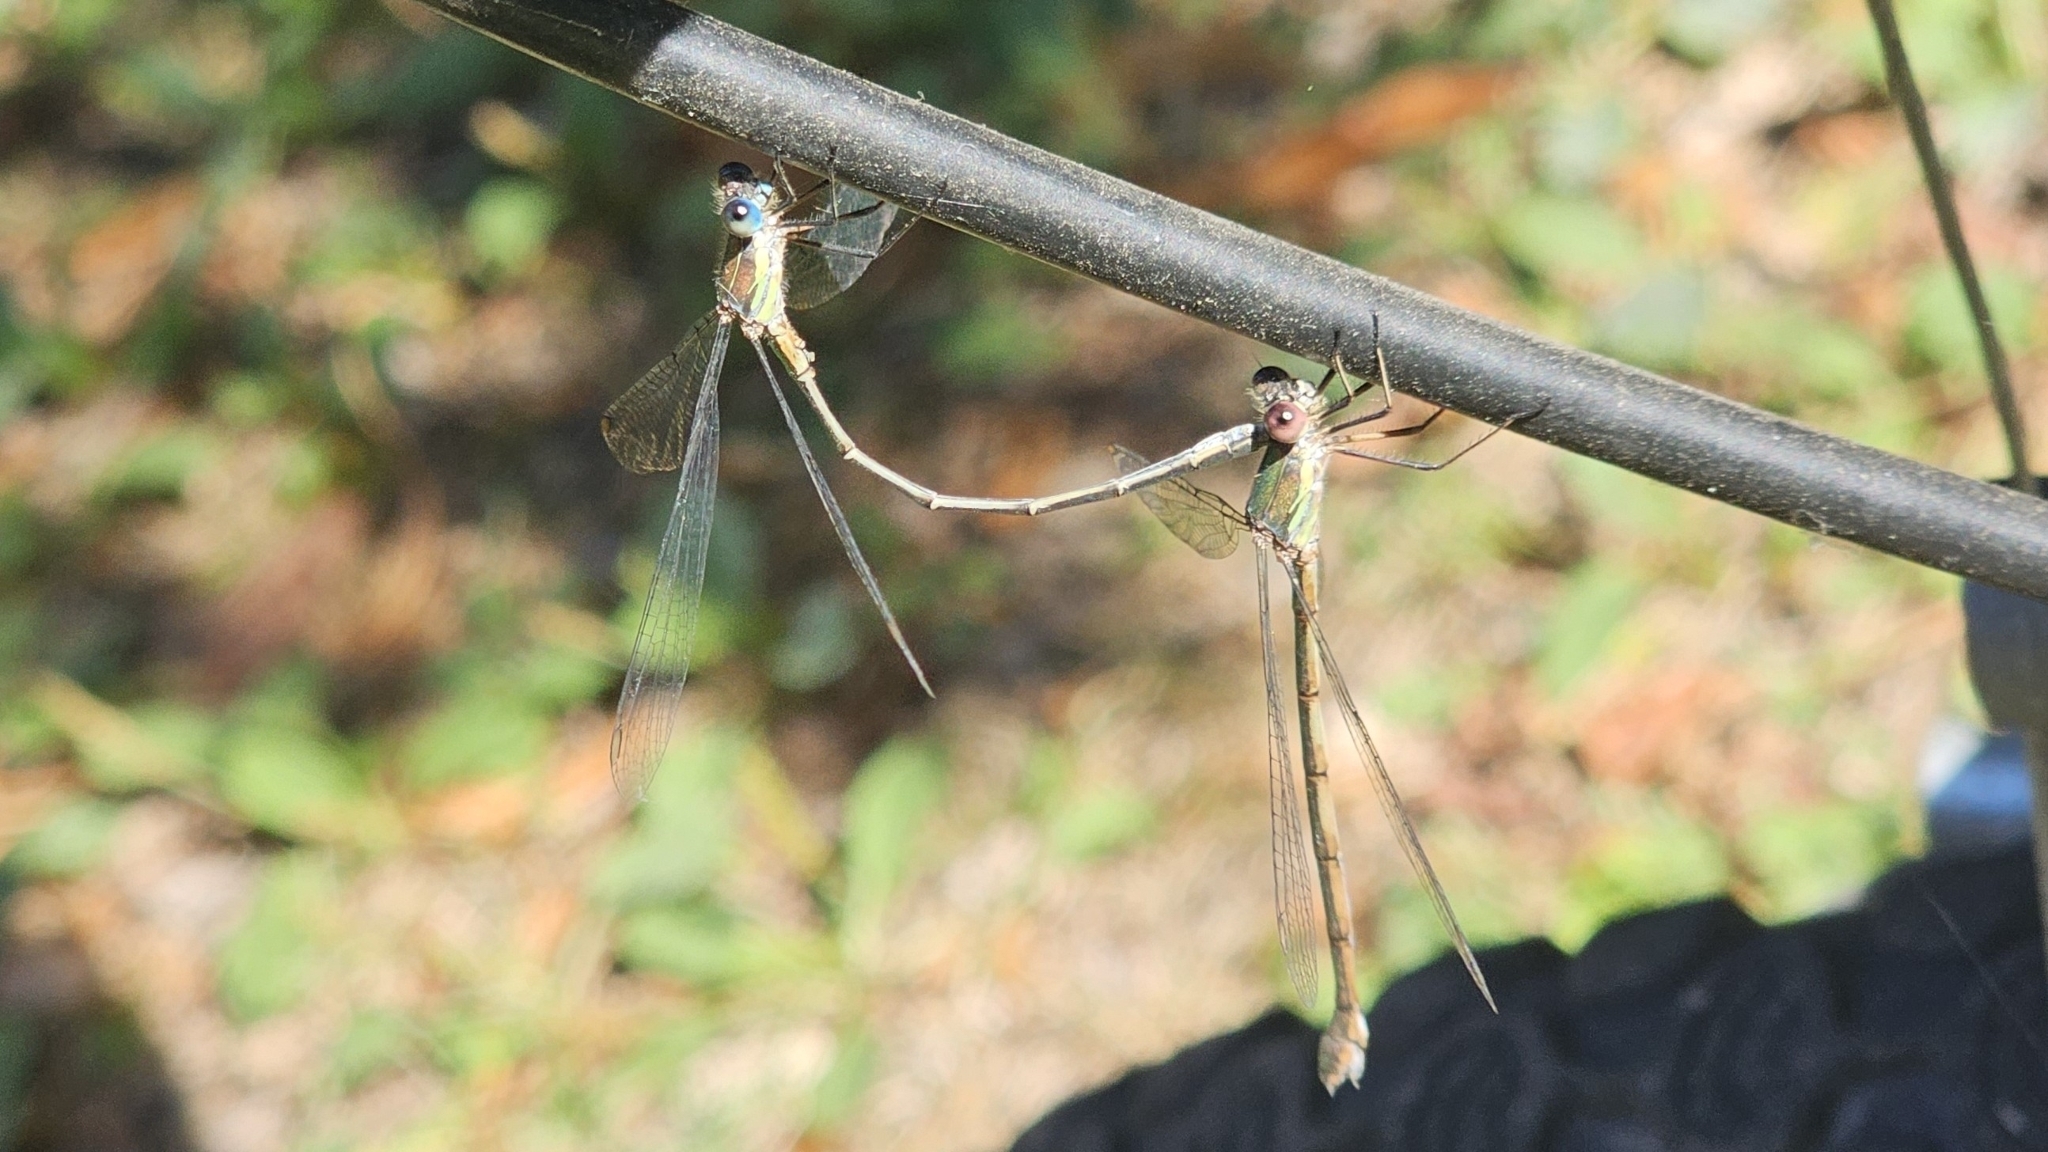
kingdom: Animalia
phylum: Arthropoda
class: Insecta
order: Odonata
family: Lestidae
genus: Chalcolestes
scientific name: Chalcolestes viridis
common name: Green emerald damselfly
